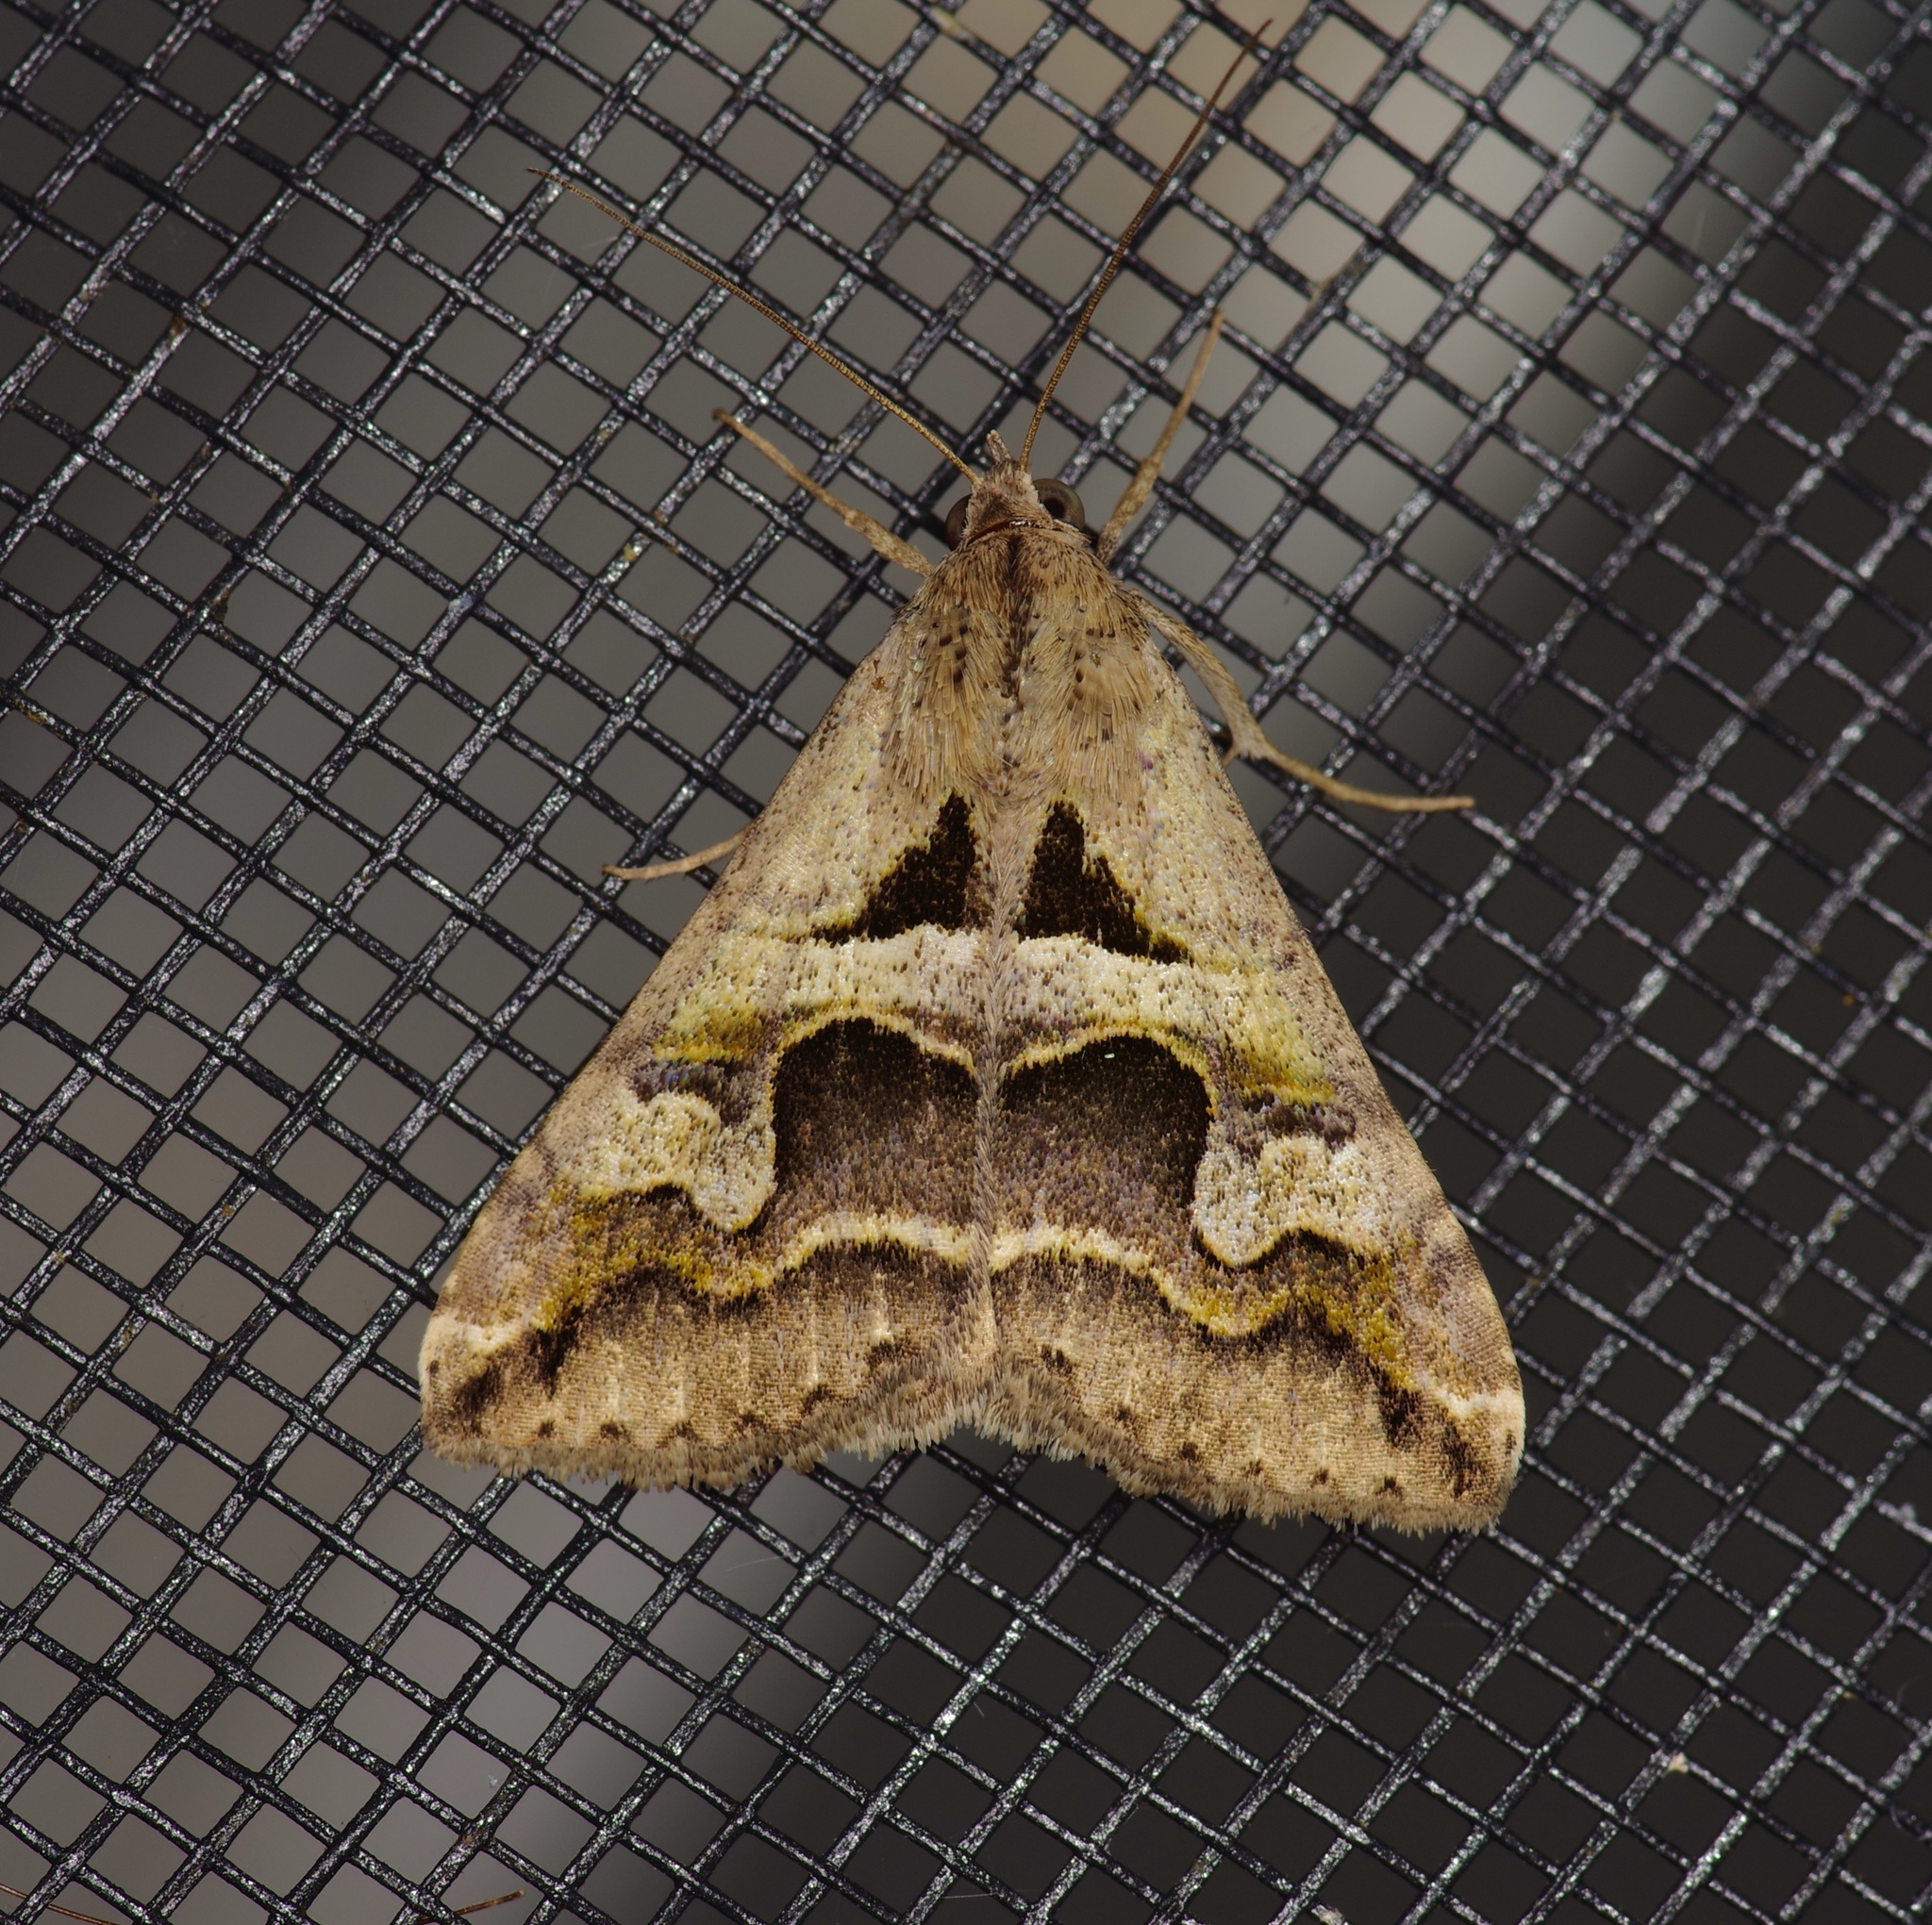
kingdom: Animalia
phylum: Arthropoda
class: Insecta
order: Lepidoptera
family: Erebidae
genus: Melipotis
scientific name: Melipotis cellaris
